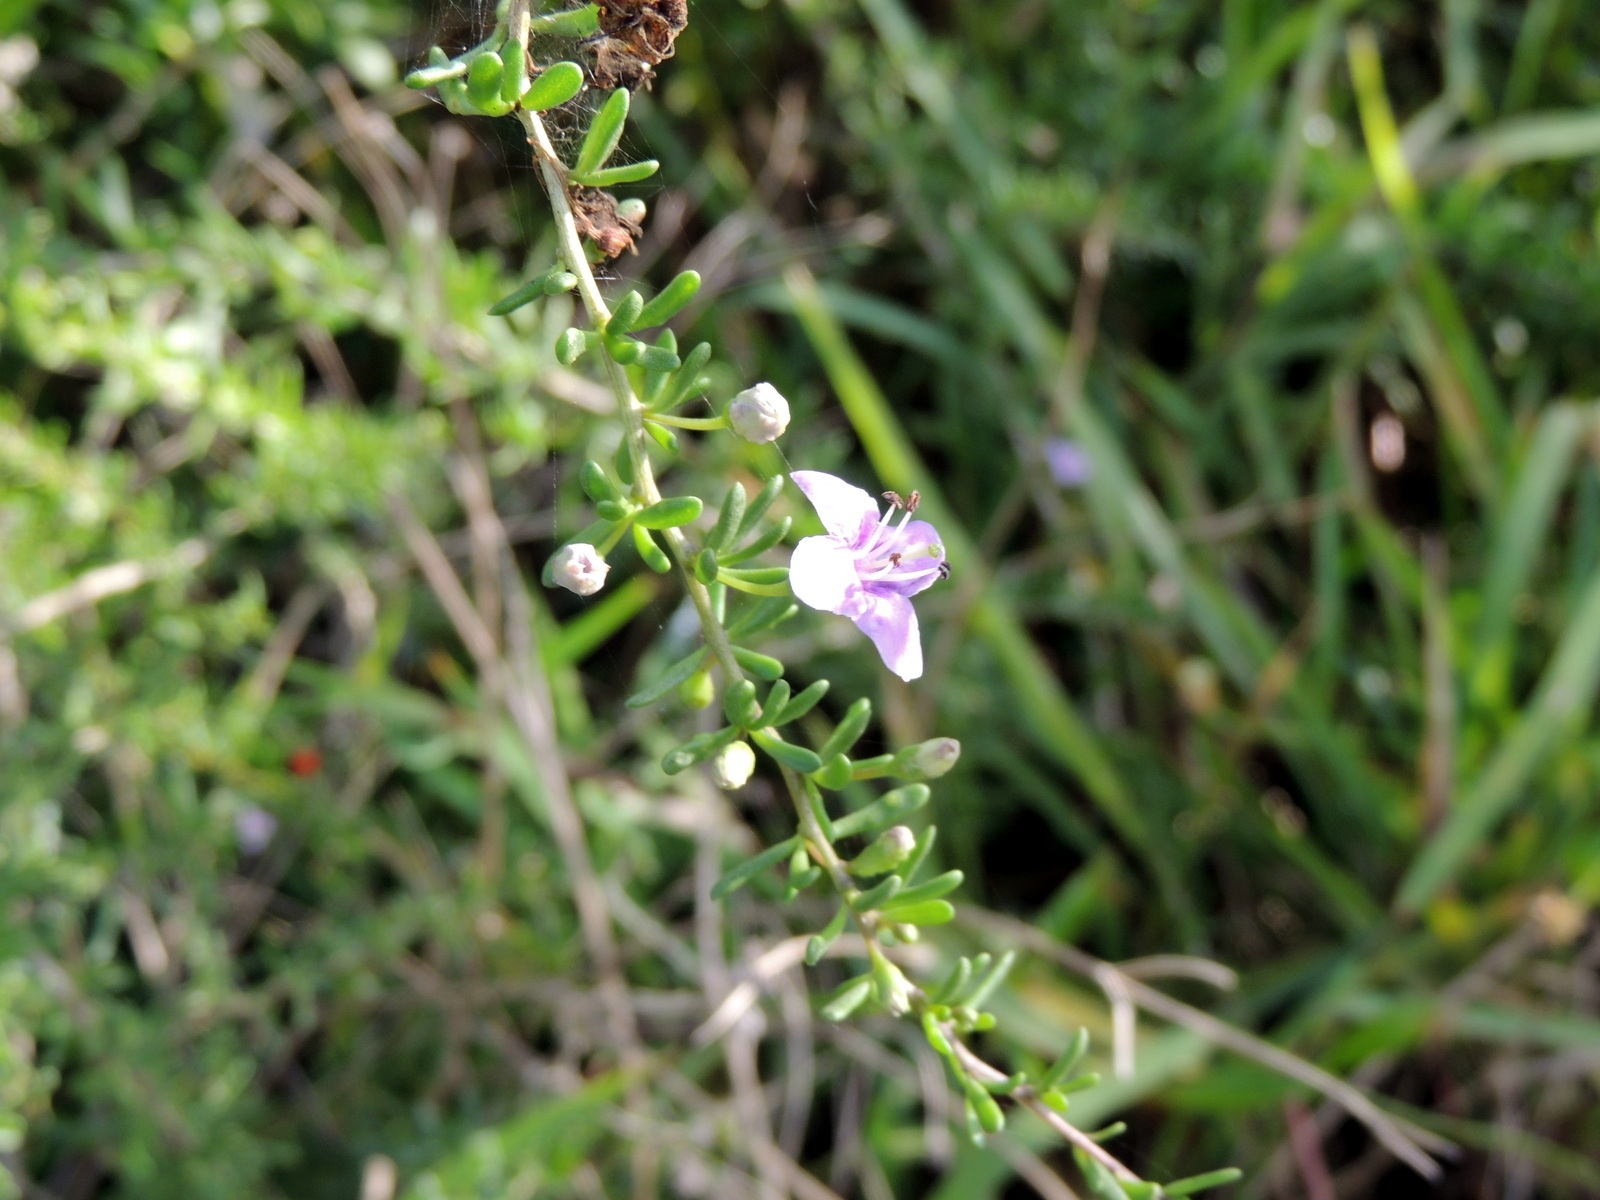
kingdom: Plantae
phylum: Tracheophyta
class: Magnoliopsida
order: Solanales
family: Solanaceae
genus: Lycium
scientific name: Lycium carolinianum
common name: Christmasberry
